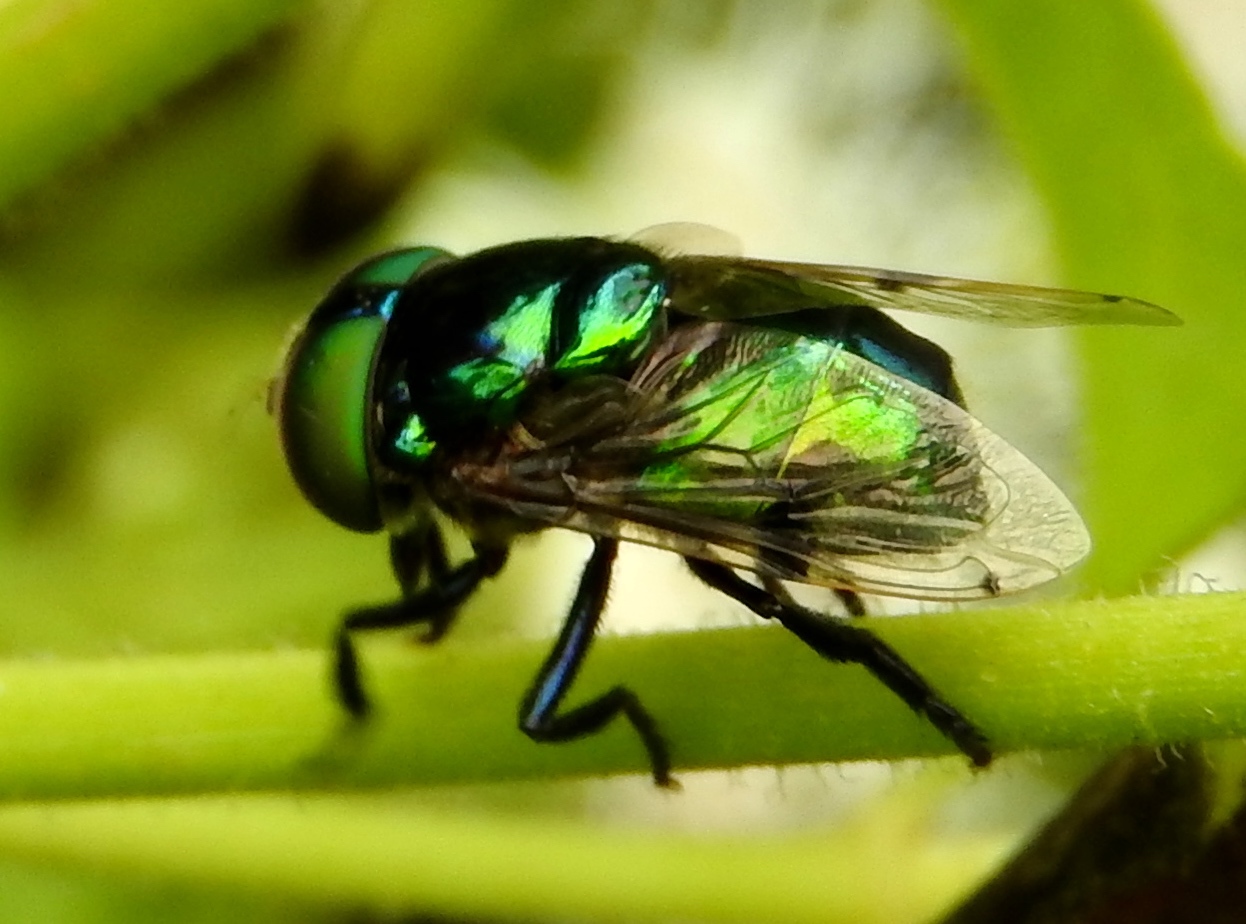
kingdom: Animalia
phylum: Arthropoda
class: Insecta
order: Diptera
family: Syrphidae
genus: Ornidia
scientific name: Ornidia obesa
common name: Syrphid fly
